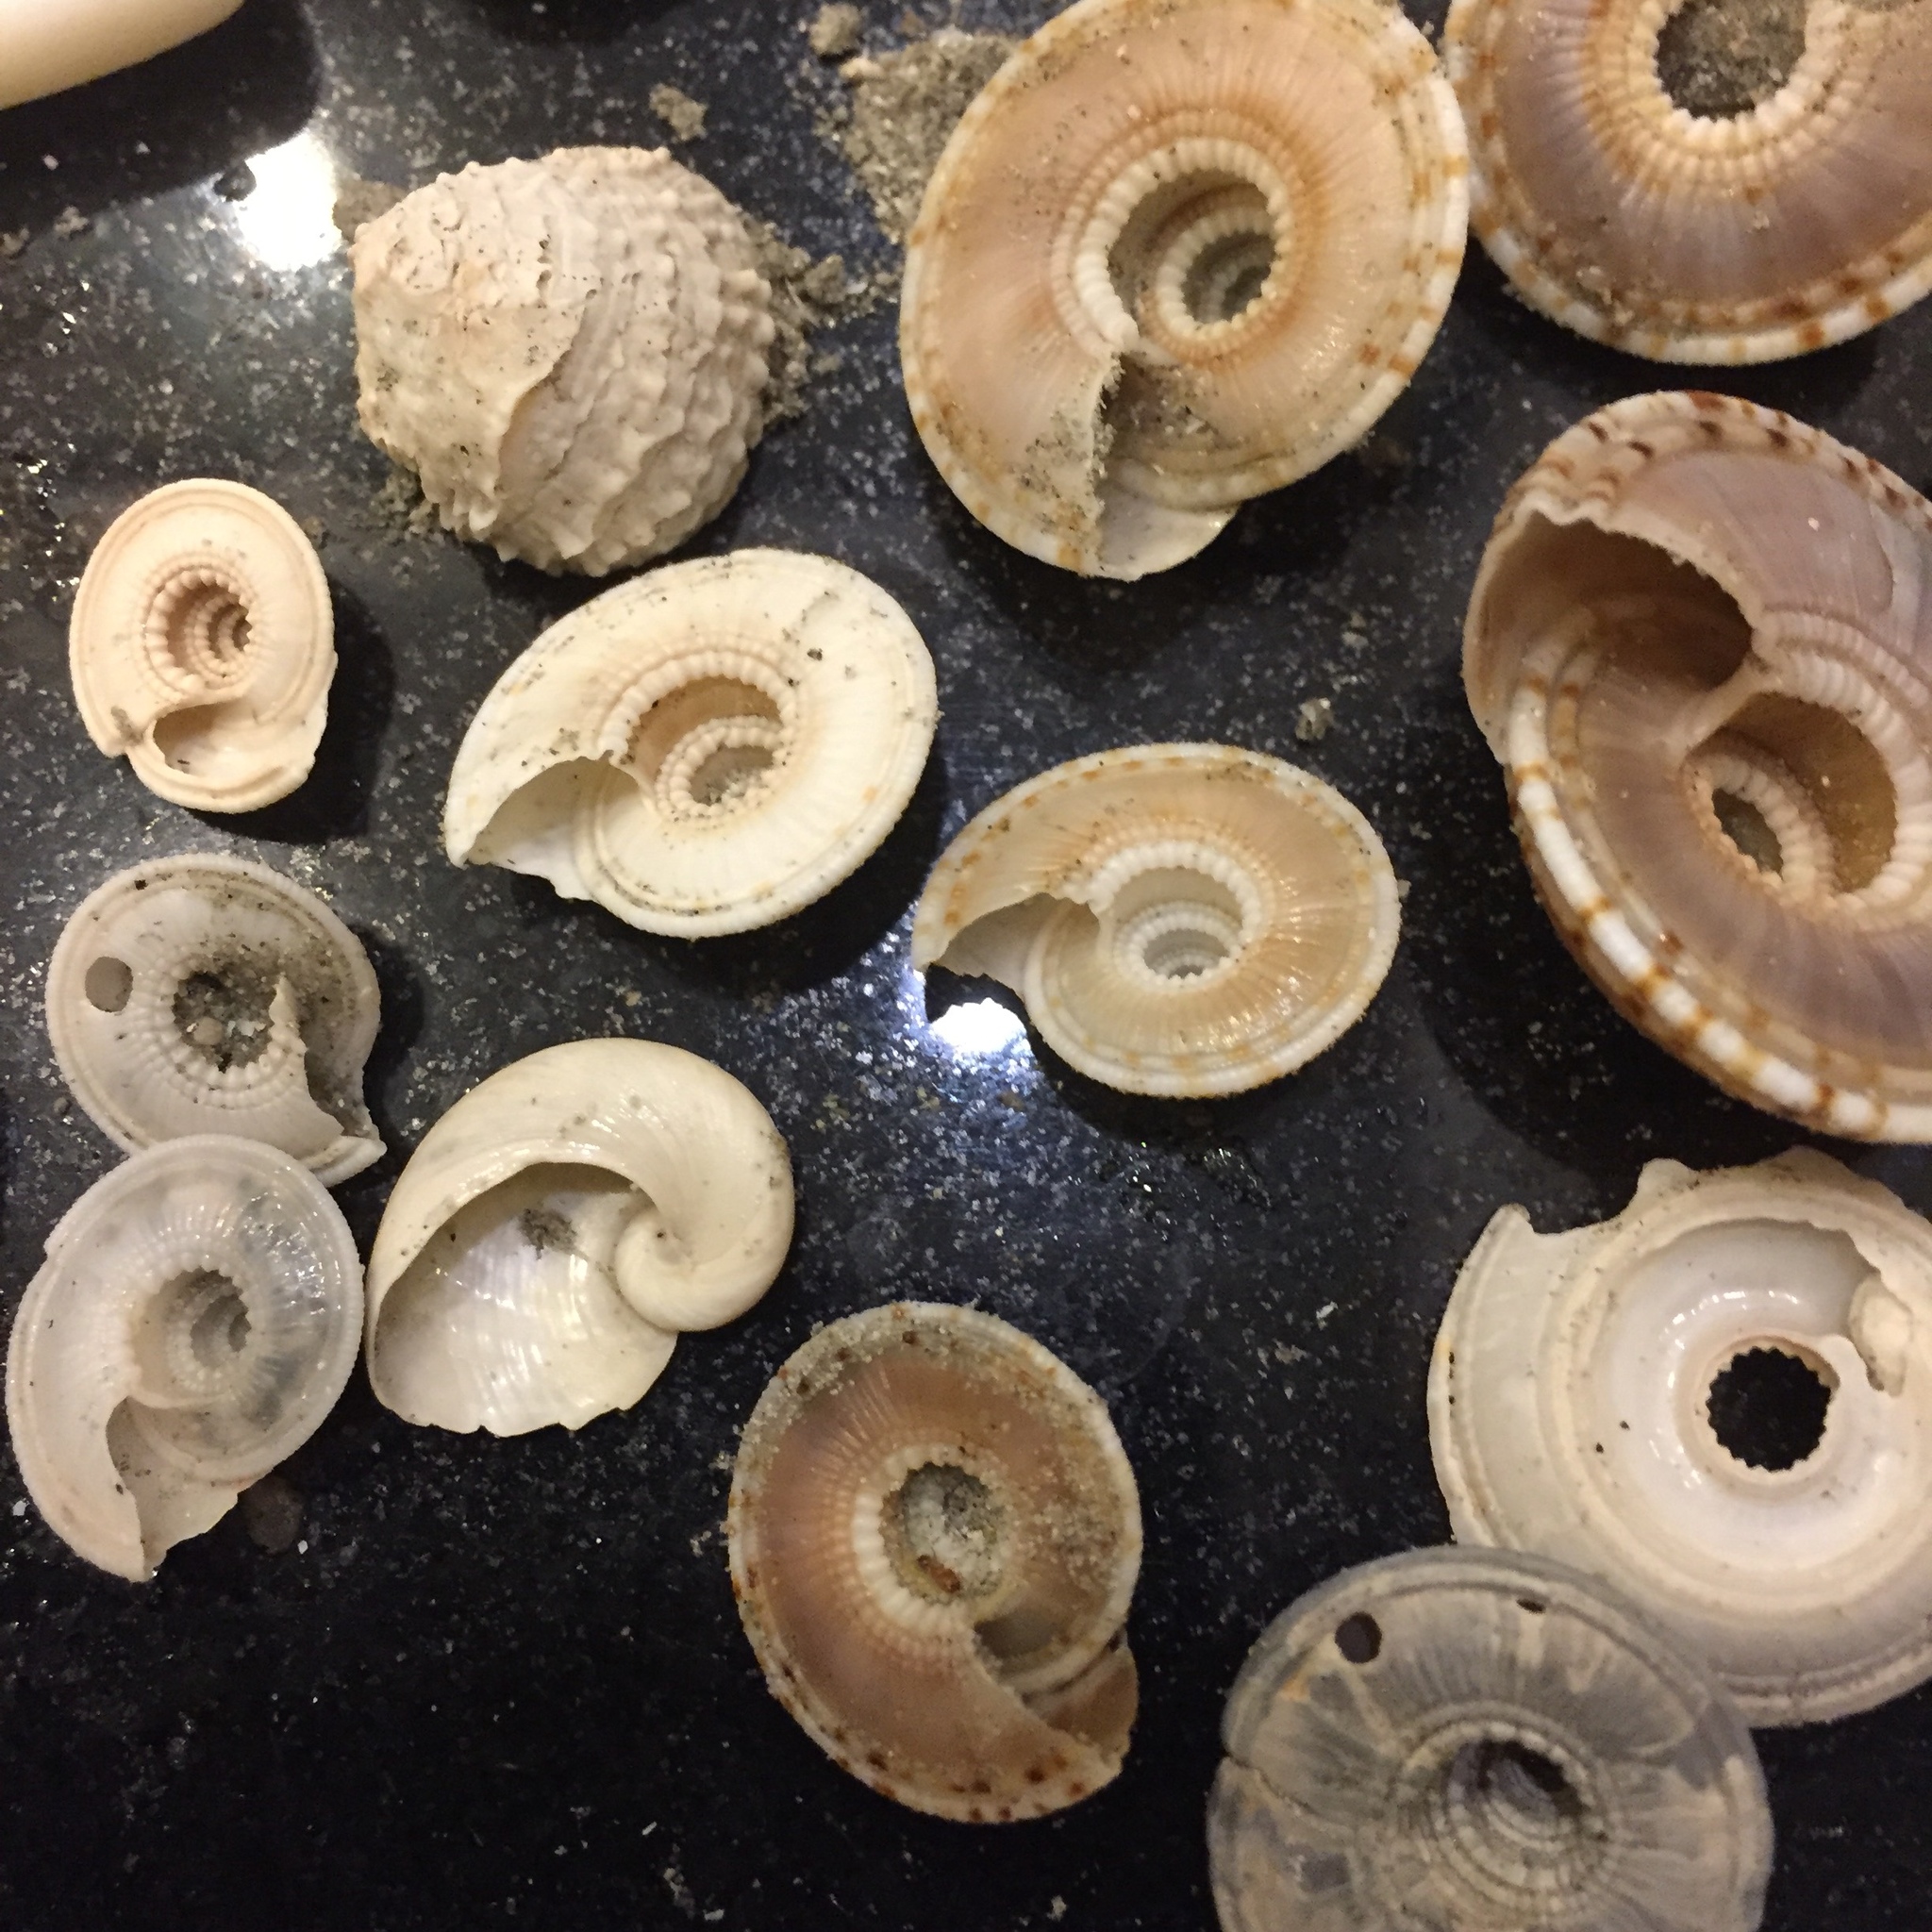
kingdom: Animalia
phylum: Mollusca
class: Gastropoda
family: Architectonicidae
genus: Architectonica
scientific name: Architectonica perspectiva
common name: European sundial snail
